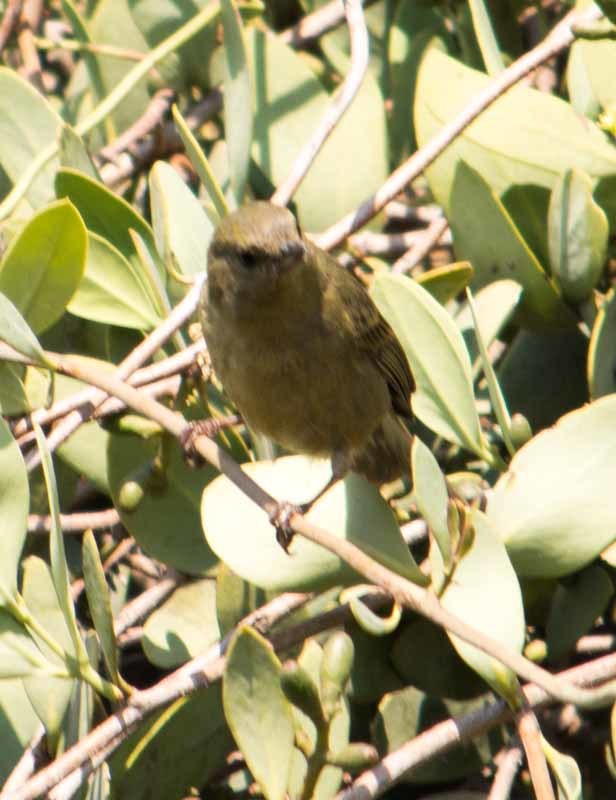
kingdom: Animalia
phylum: Chordata
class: Aves
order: Passeriformes
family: Thraupidae
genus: Diglossa
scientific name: Diglossa baritula
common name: Cinnamon-bellied flowerpiercer
